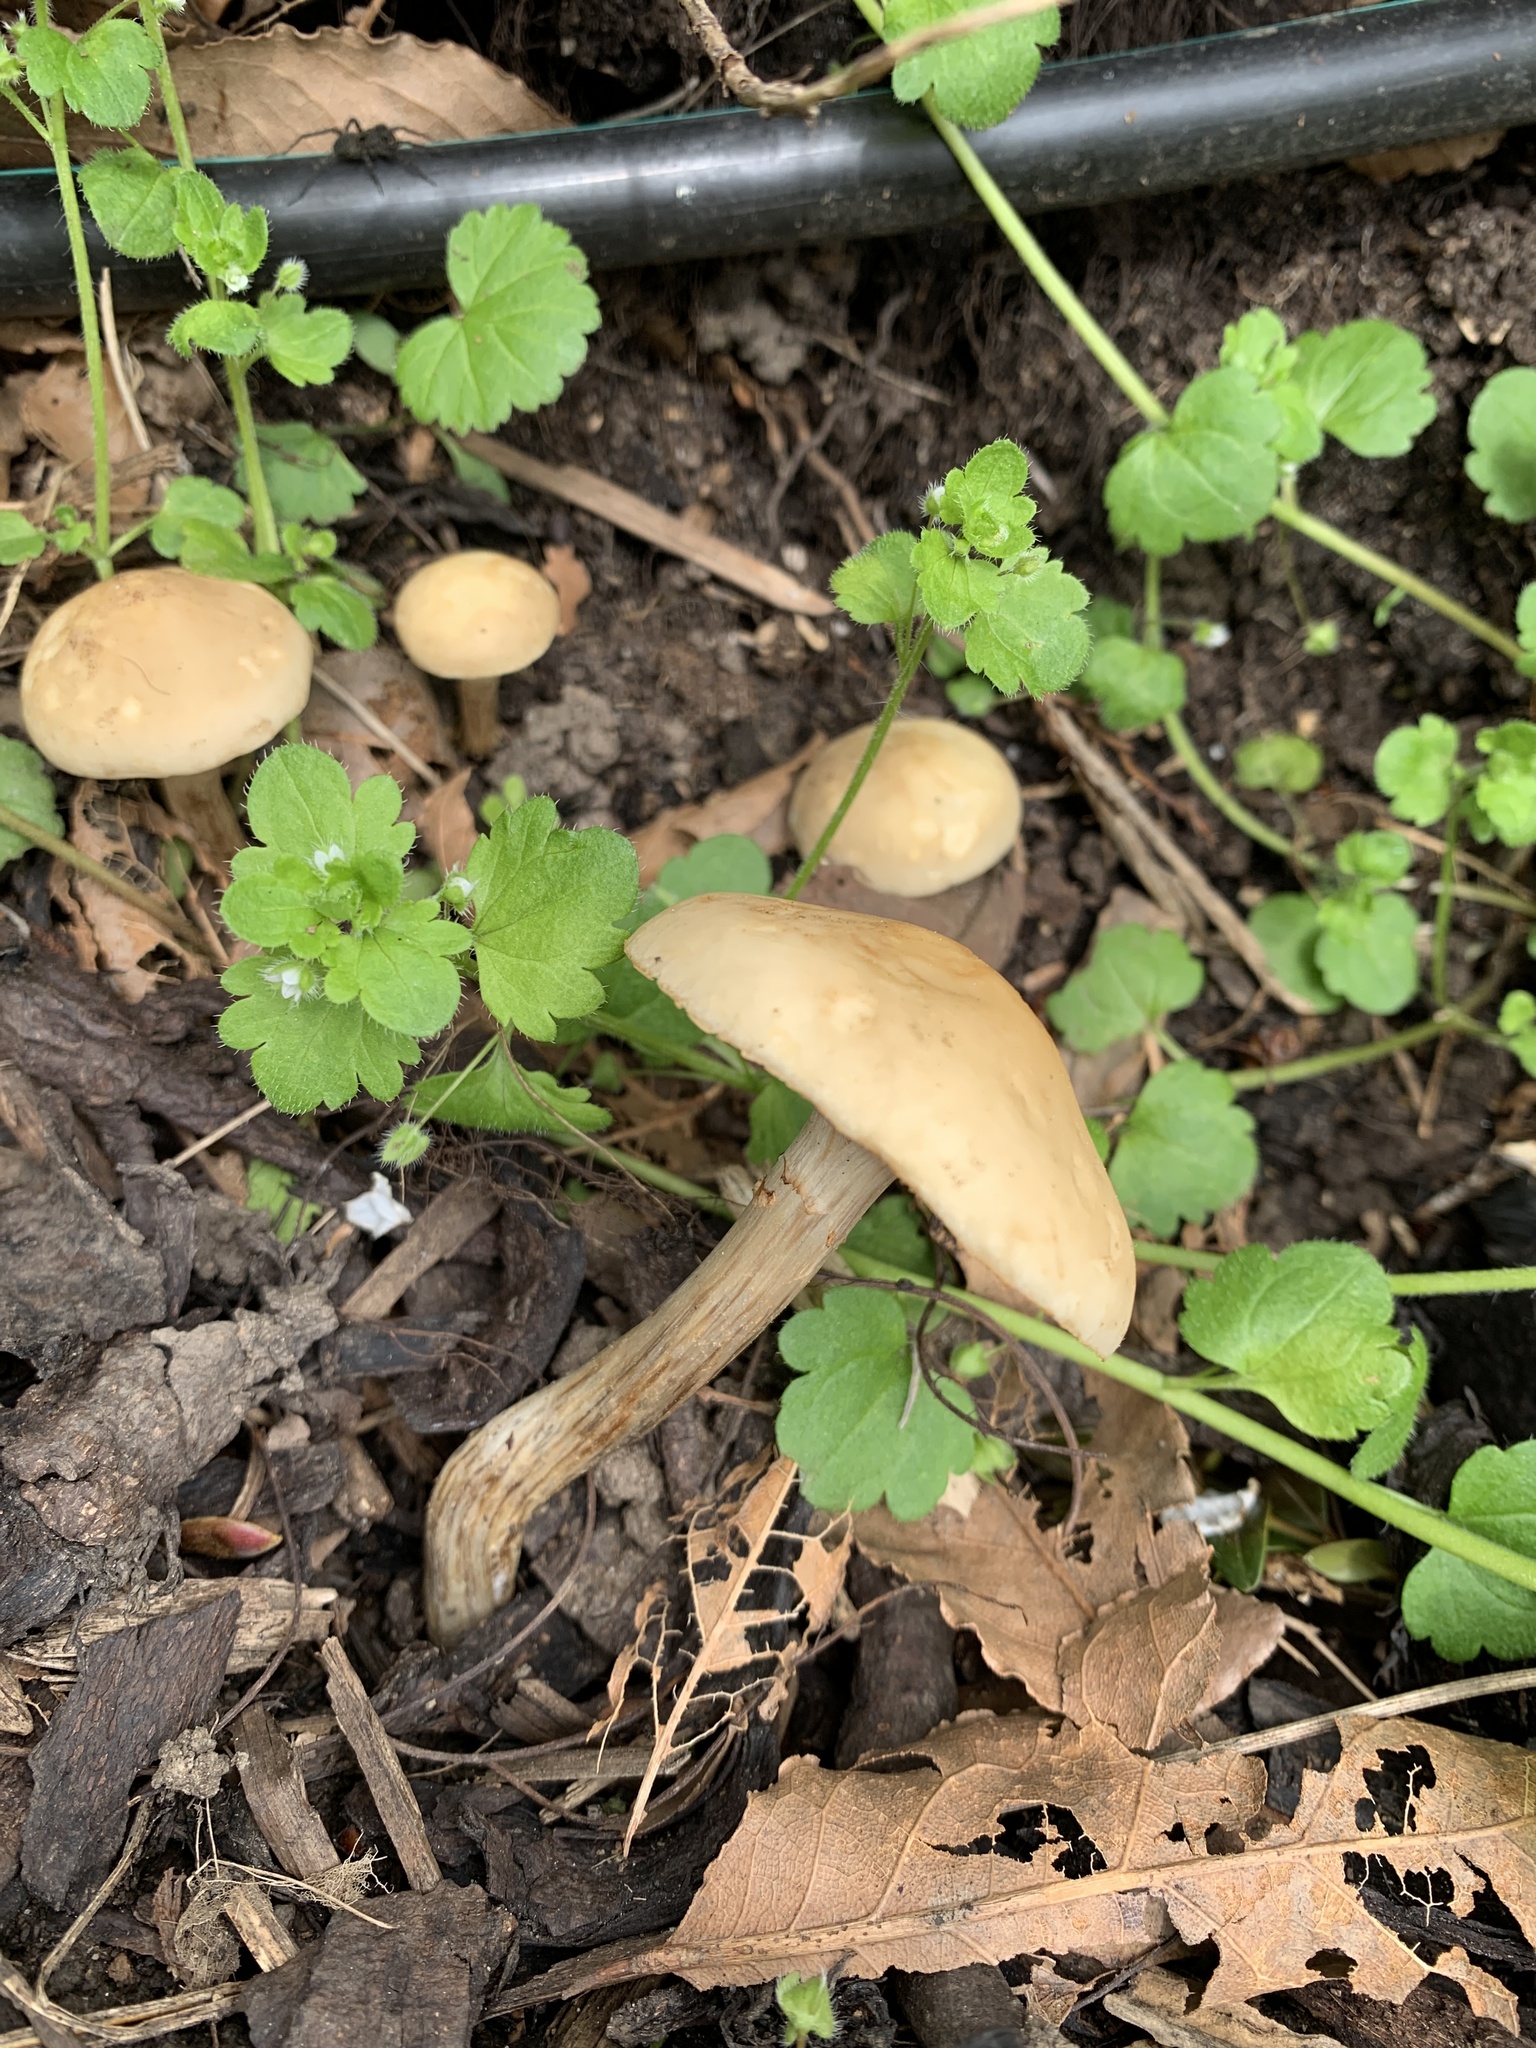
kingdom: Fungi
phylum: Basidiomycota
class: Agaricomycetes
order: Agaricales
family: Strophariaceae
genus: Agrocybe
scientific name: Agrocybe praecox
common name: Spring fieldcap
